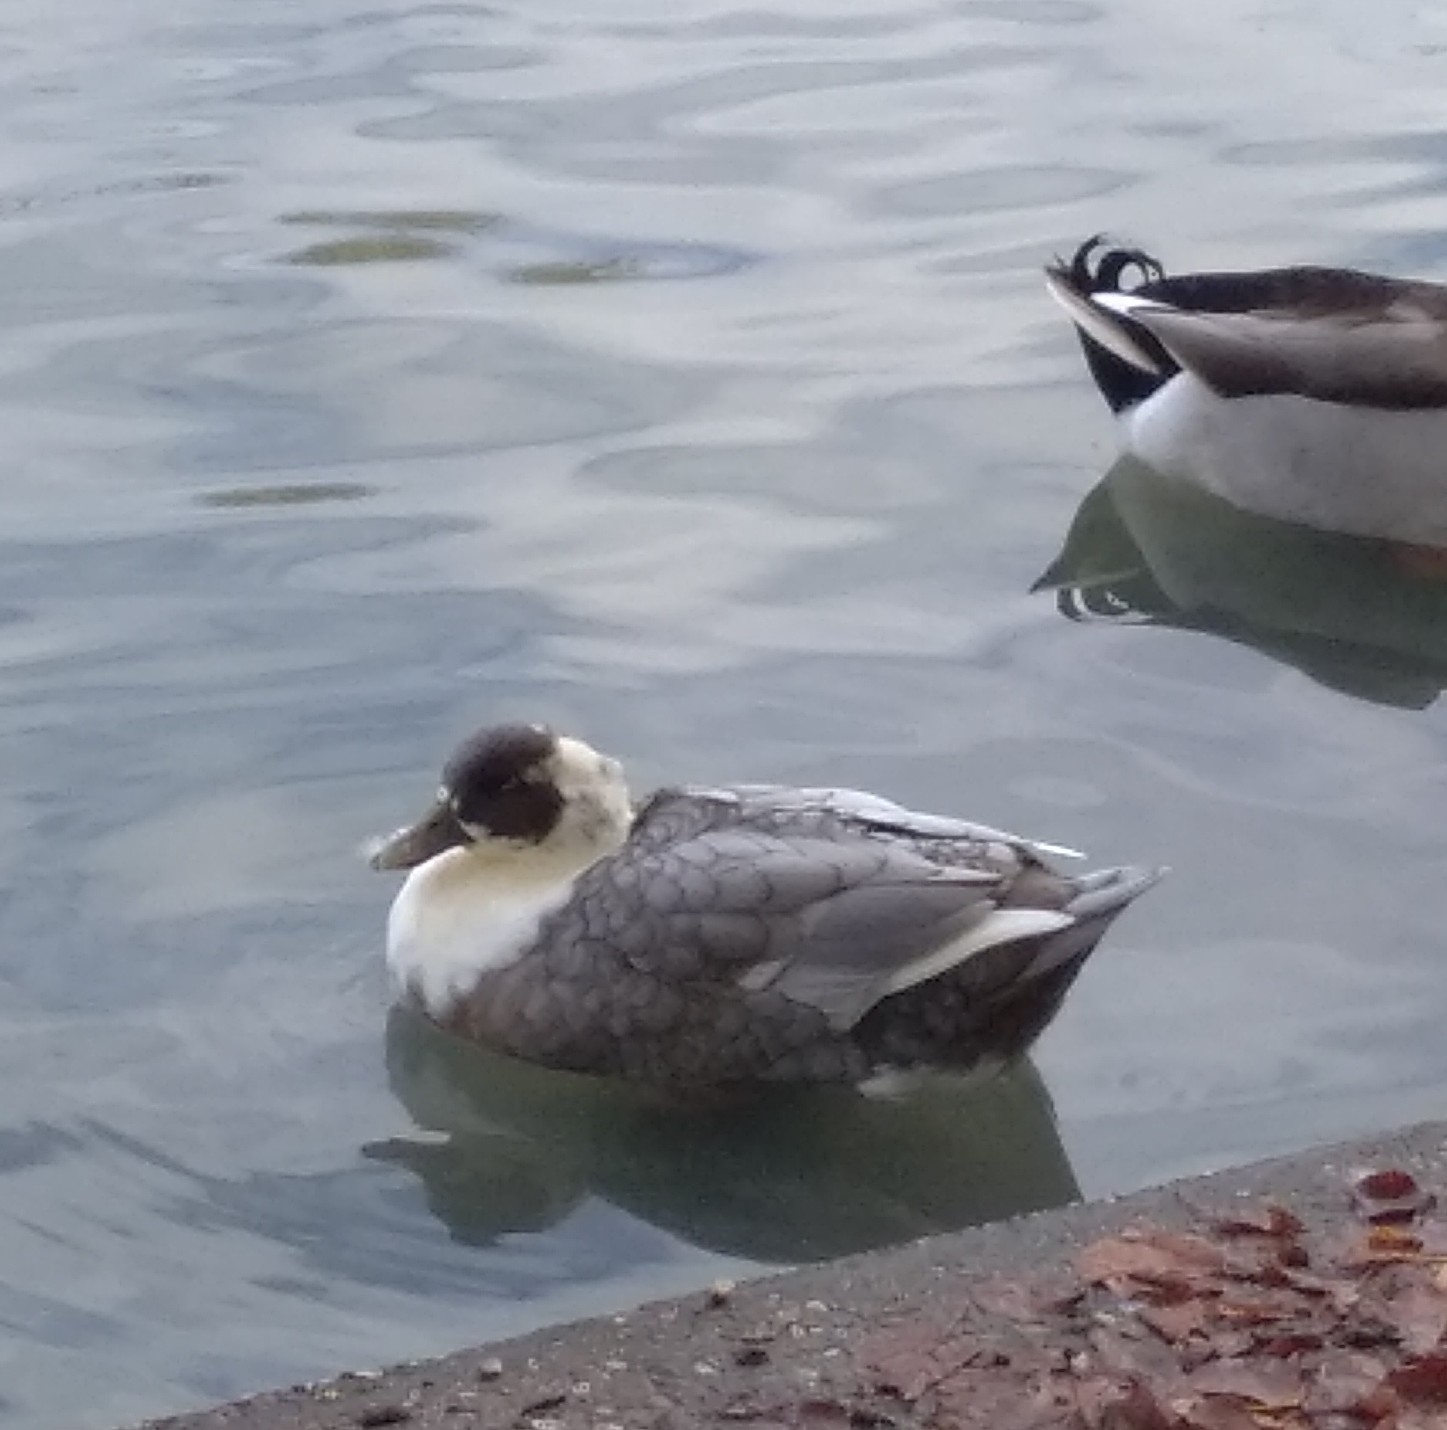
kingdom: Animalia
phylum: Chordata
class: Aves
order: Anseriformes
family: Anatidae
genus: Anas
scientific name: Anas platyrhynchos
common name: Mallard
